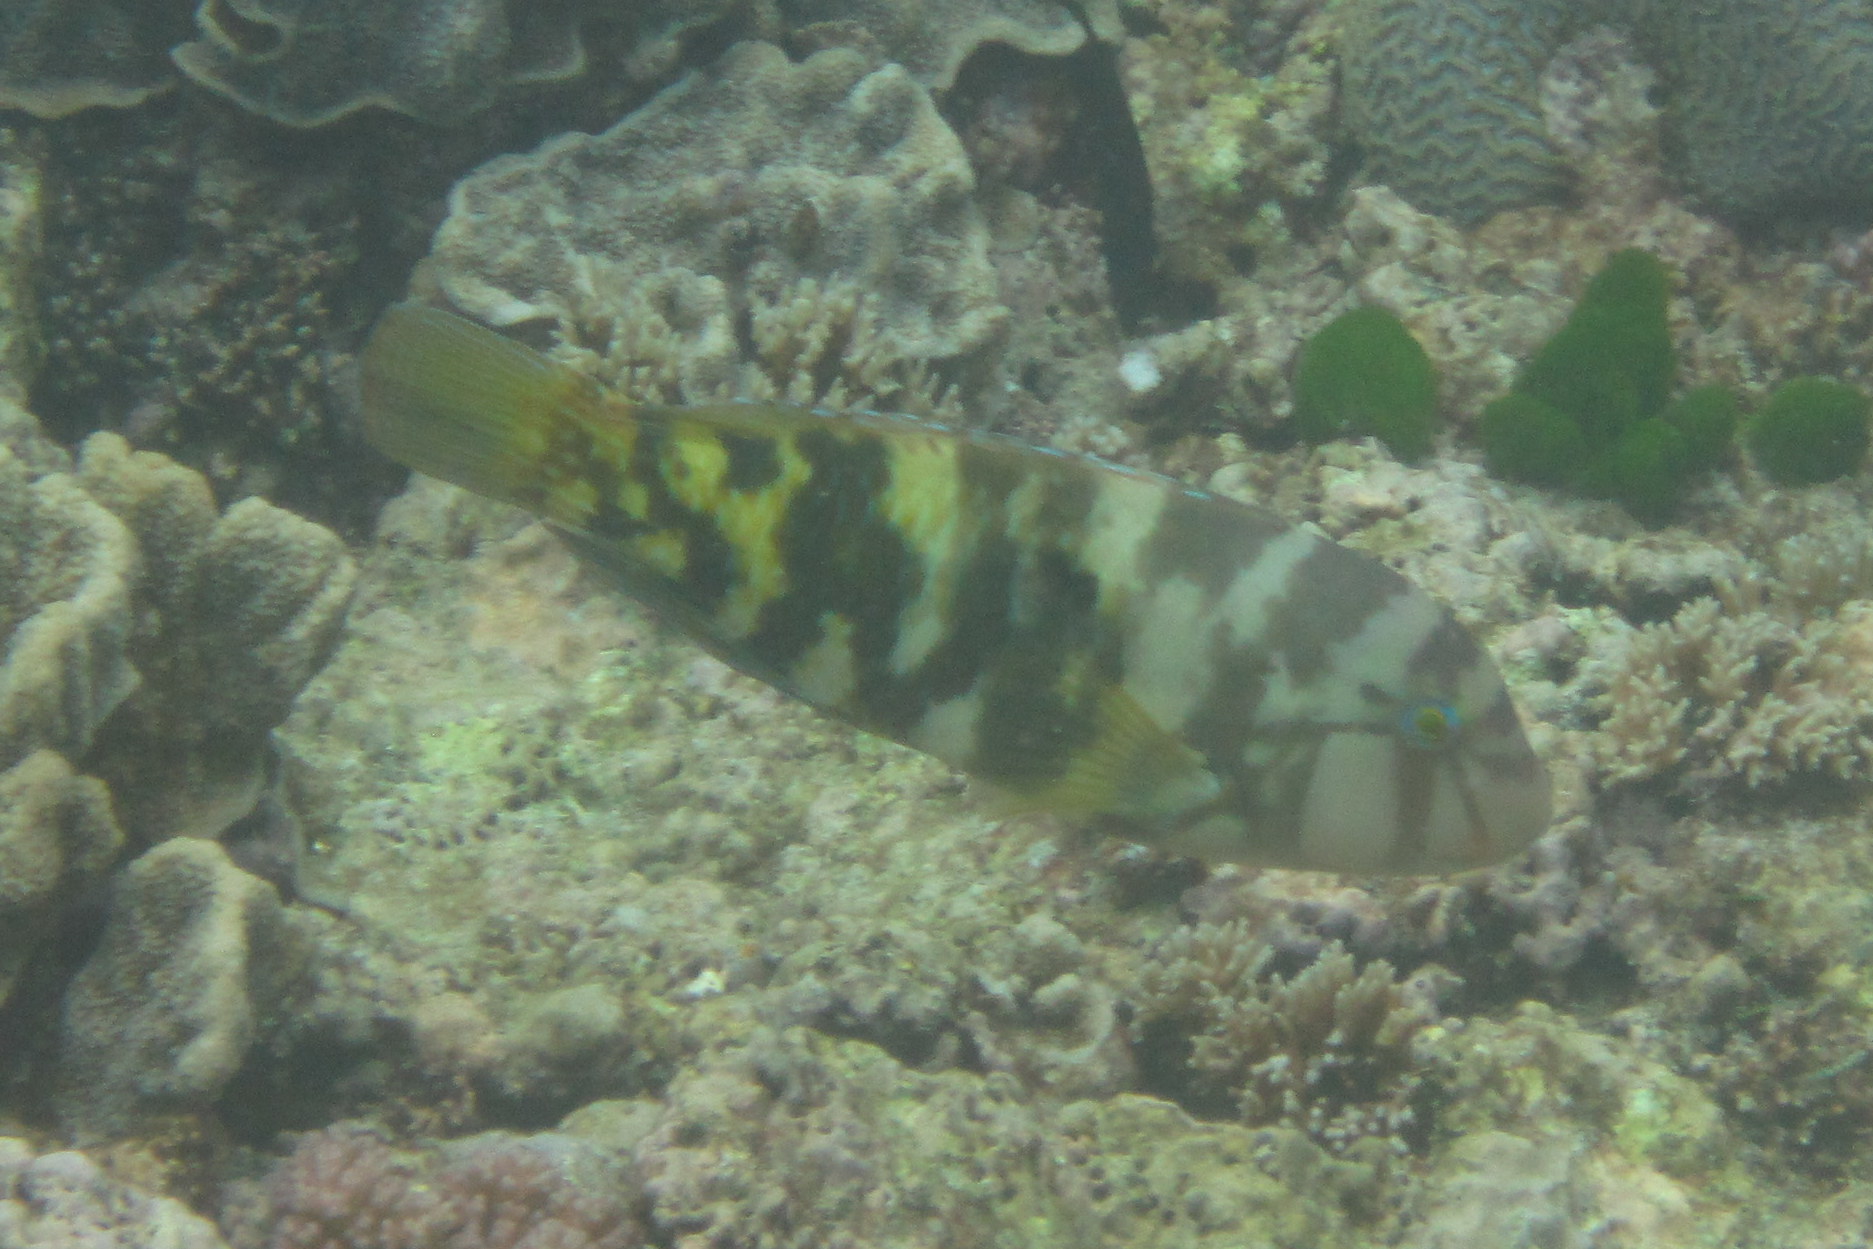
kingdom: Animalia
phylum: Chordata
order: Perciformes
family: Labridae
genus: Choerodon
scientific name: Choerodon graphicus
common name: Graphic tuskfish
